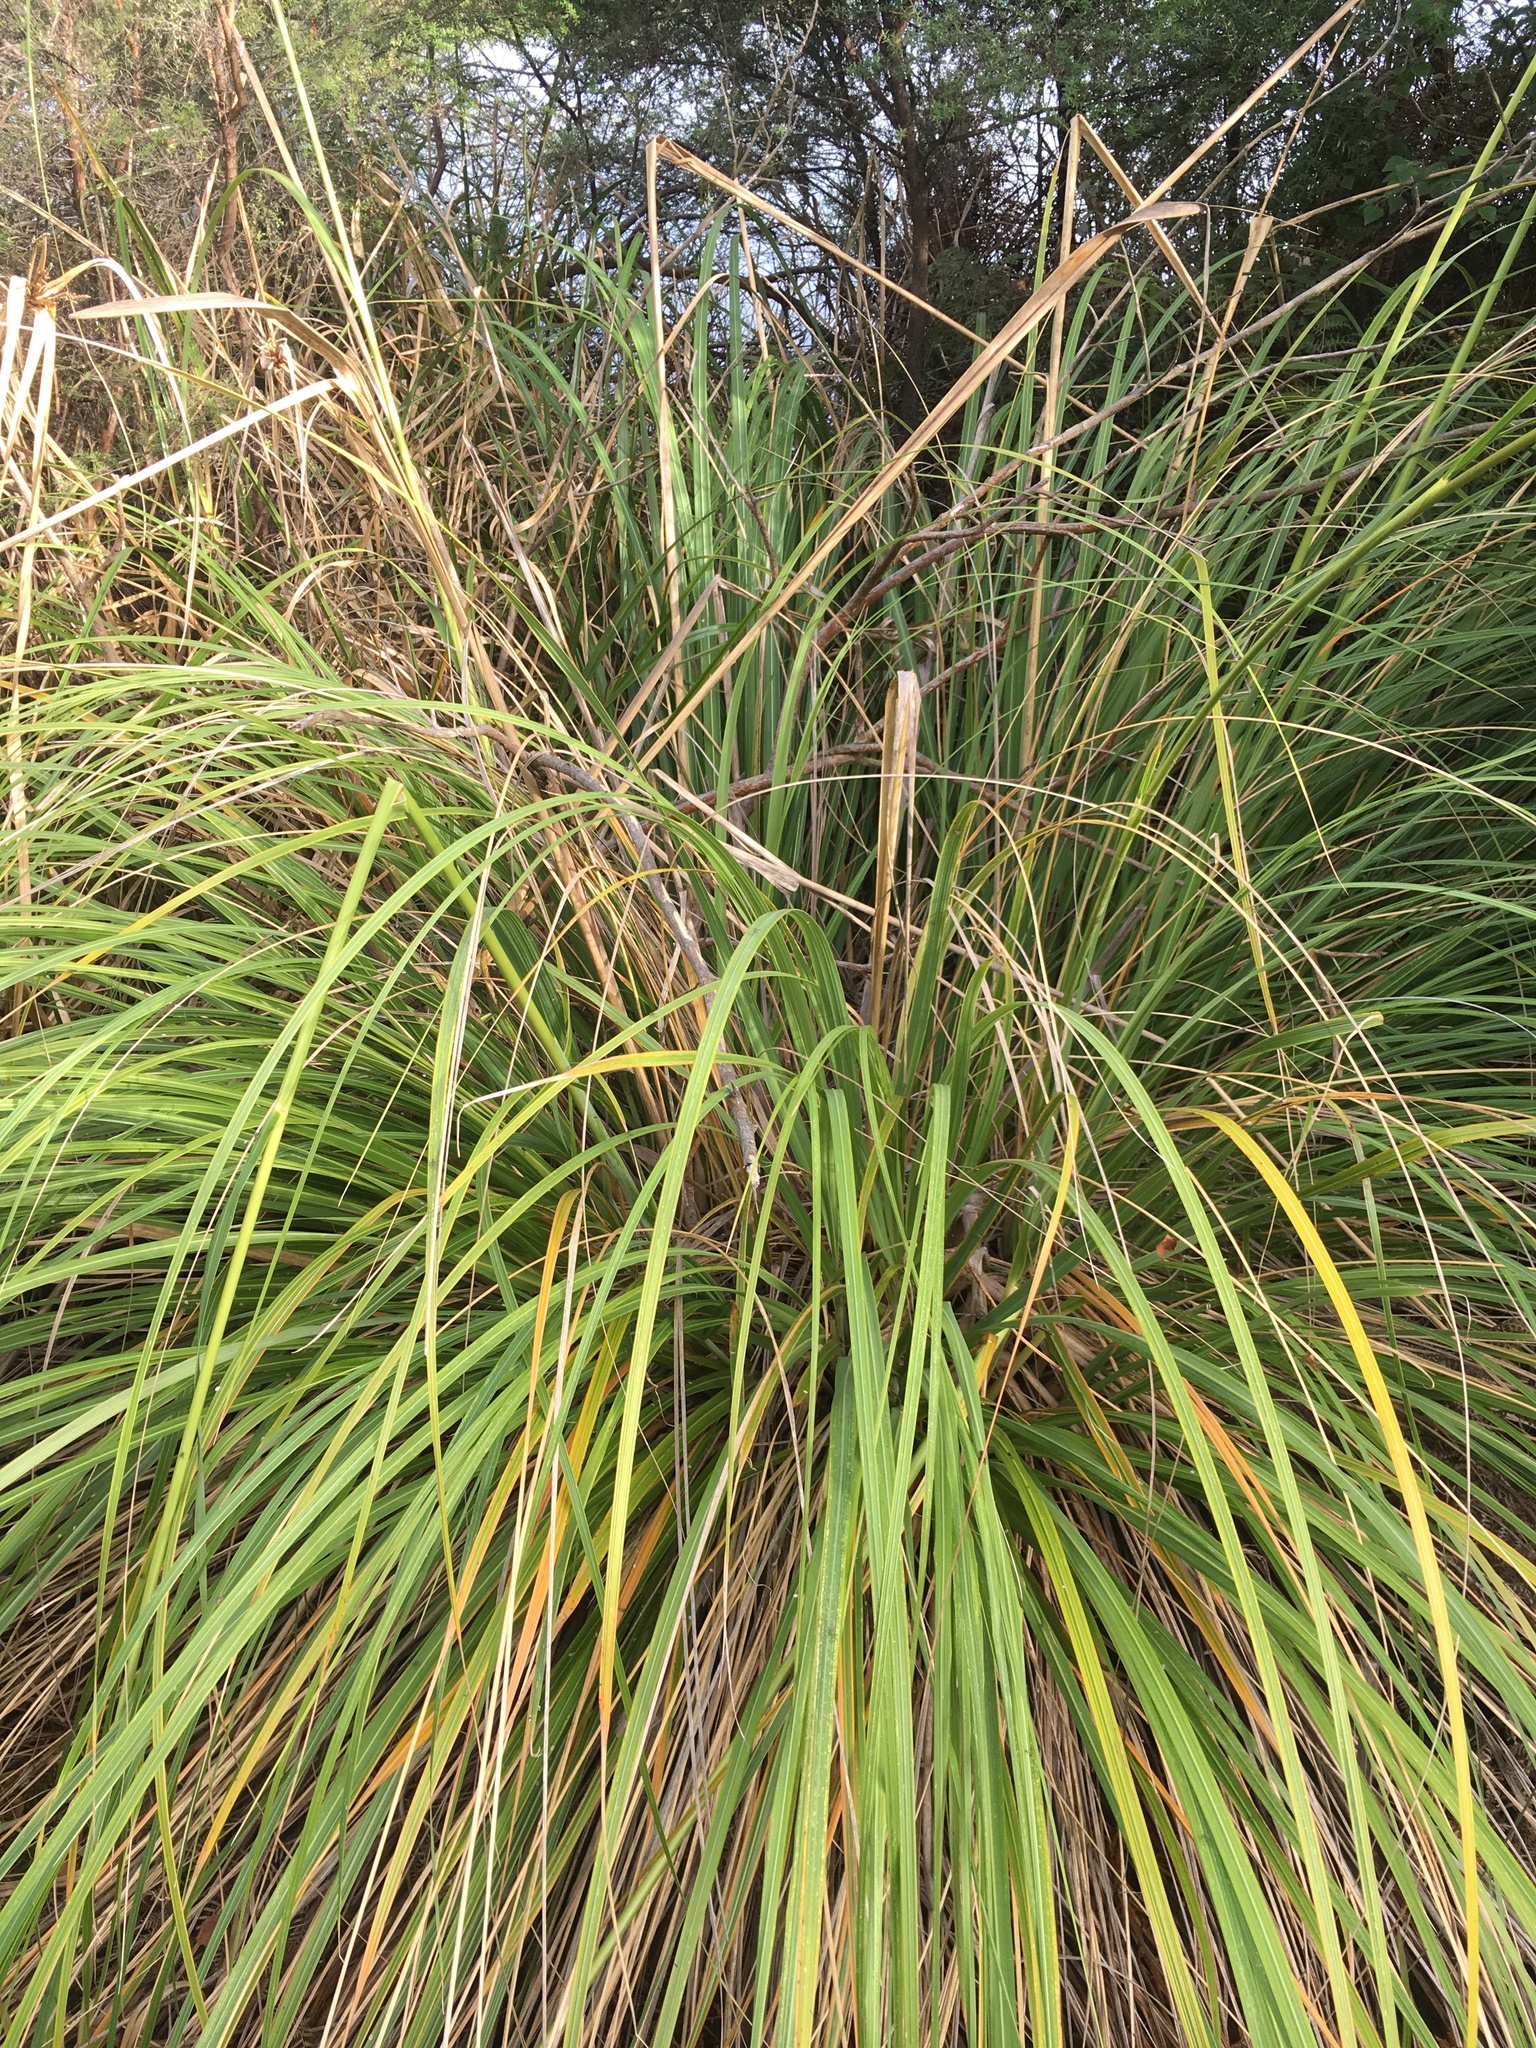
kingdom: Plantae
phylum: Tracheophyta
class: Liliopsida
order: Poales
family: Poaceae
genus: Austroderia
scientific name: Austroderia fulvida
